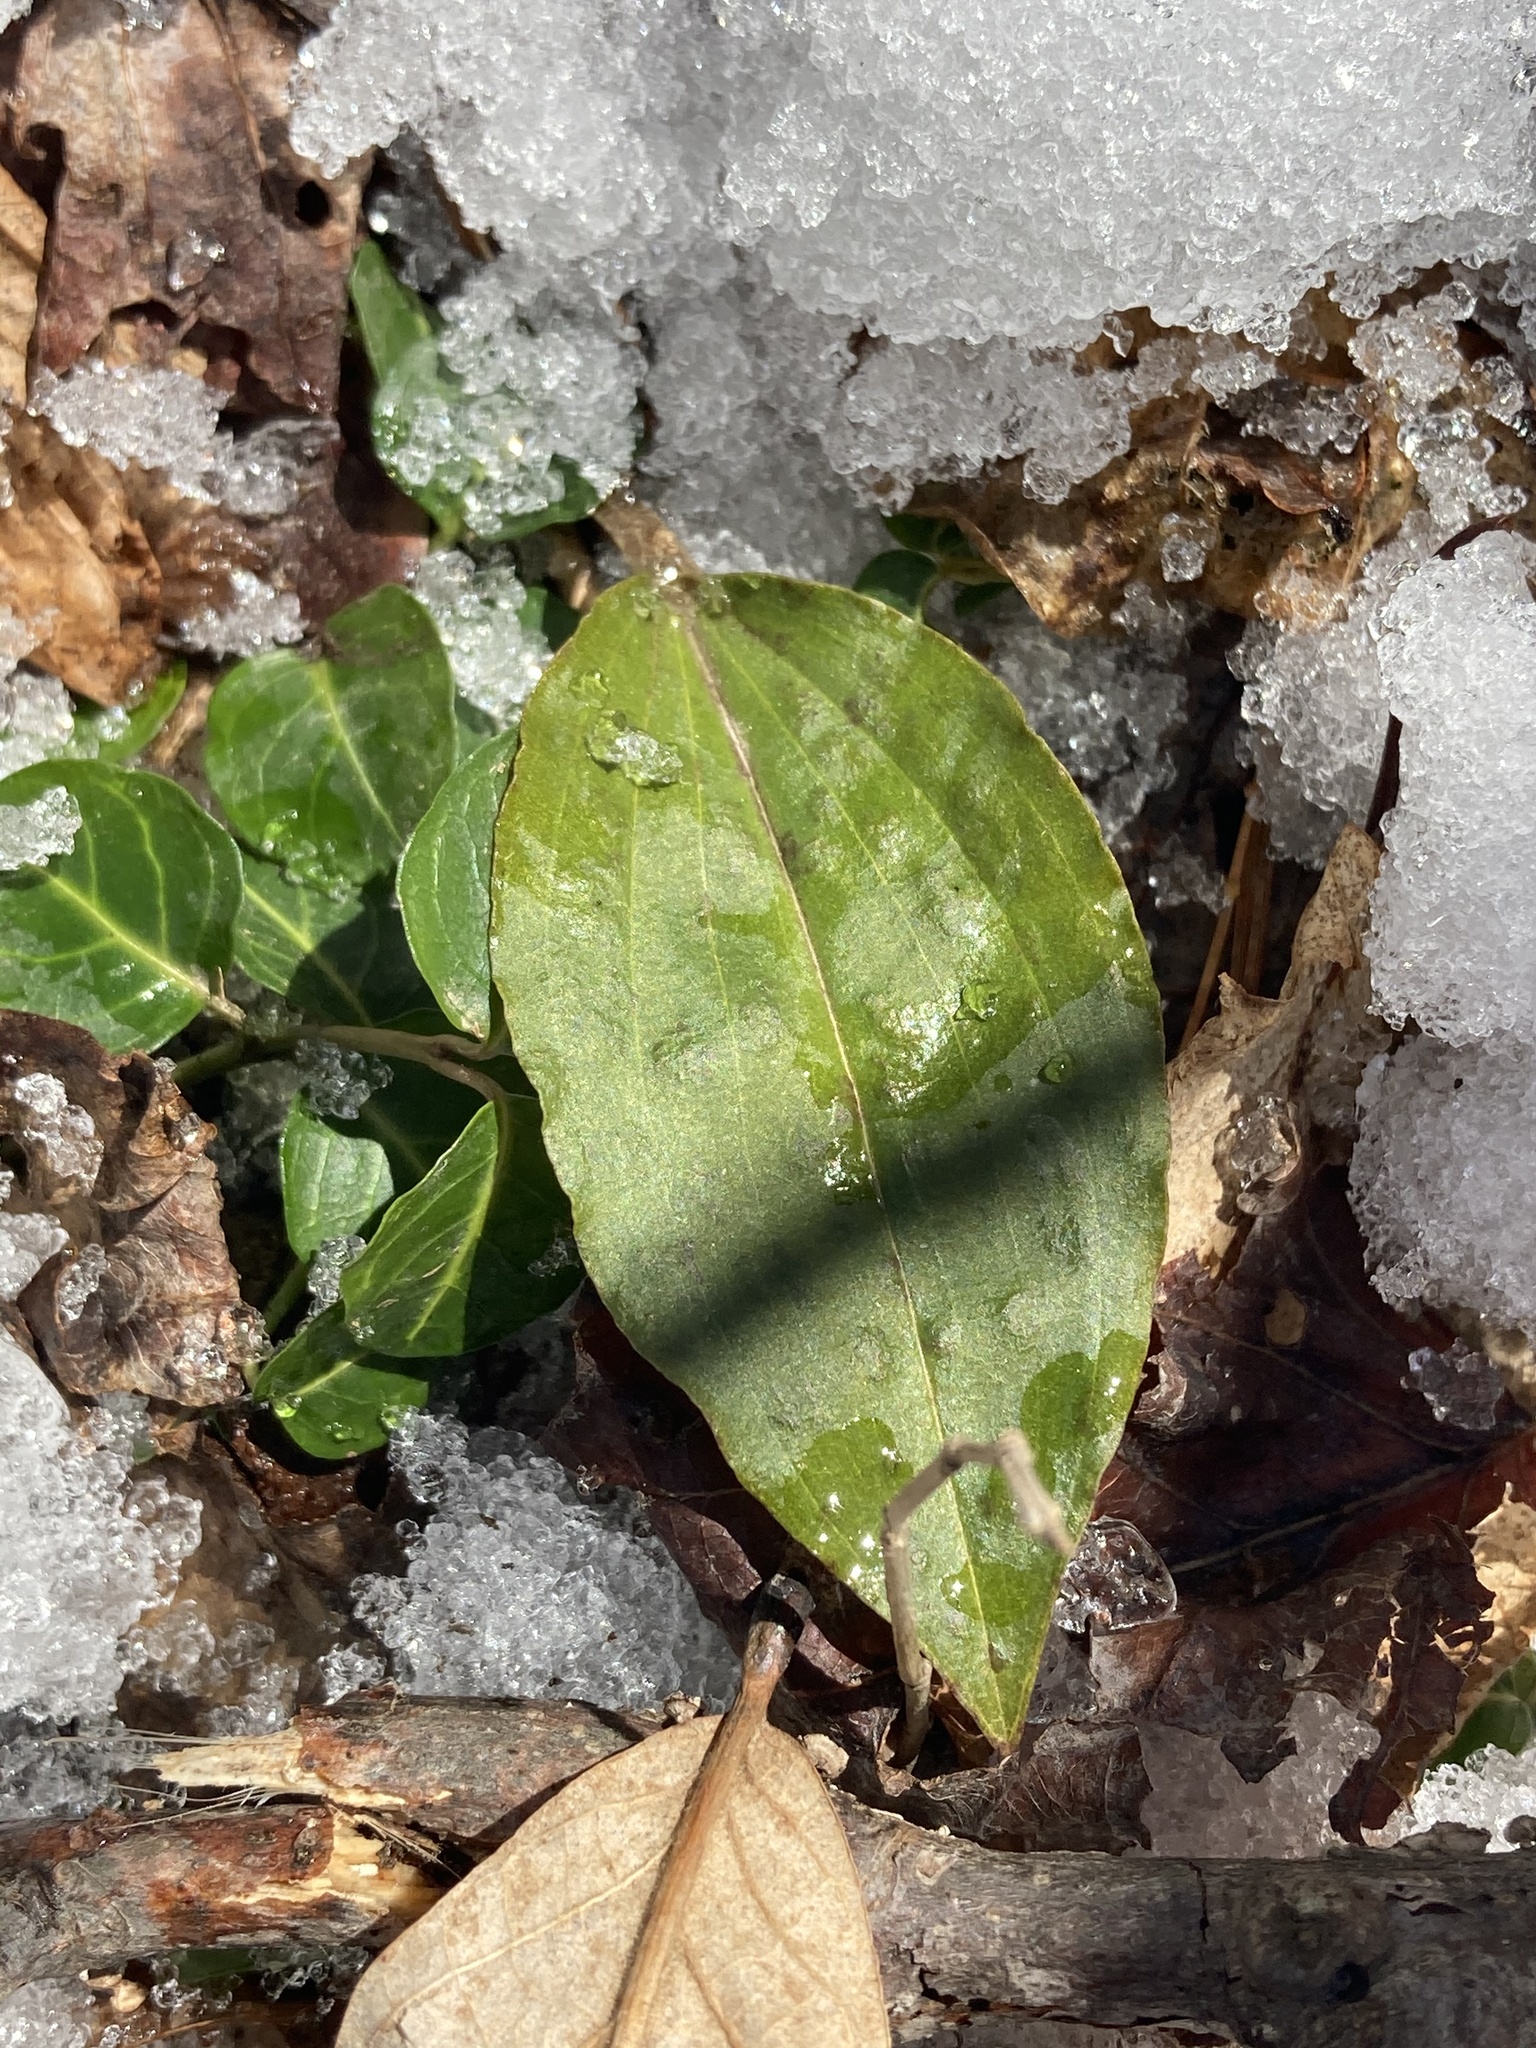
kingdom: Plantae
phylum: Tracheophyta
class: Liliopsida
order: Asparagales
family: Orchidaceae
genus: Tipularia
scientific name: Tipularia discolor
